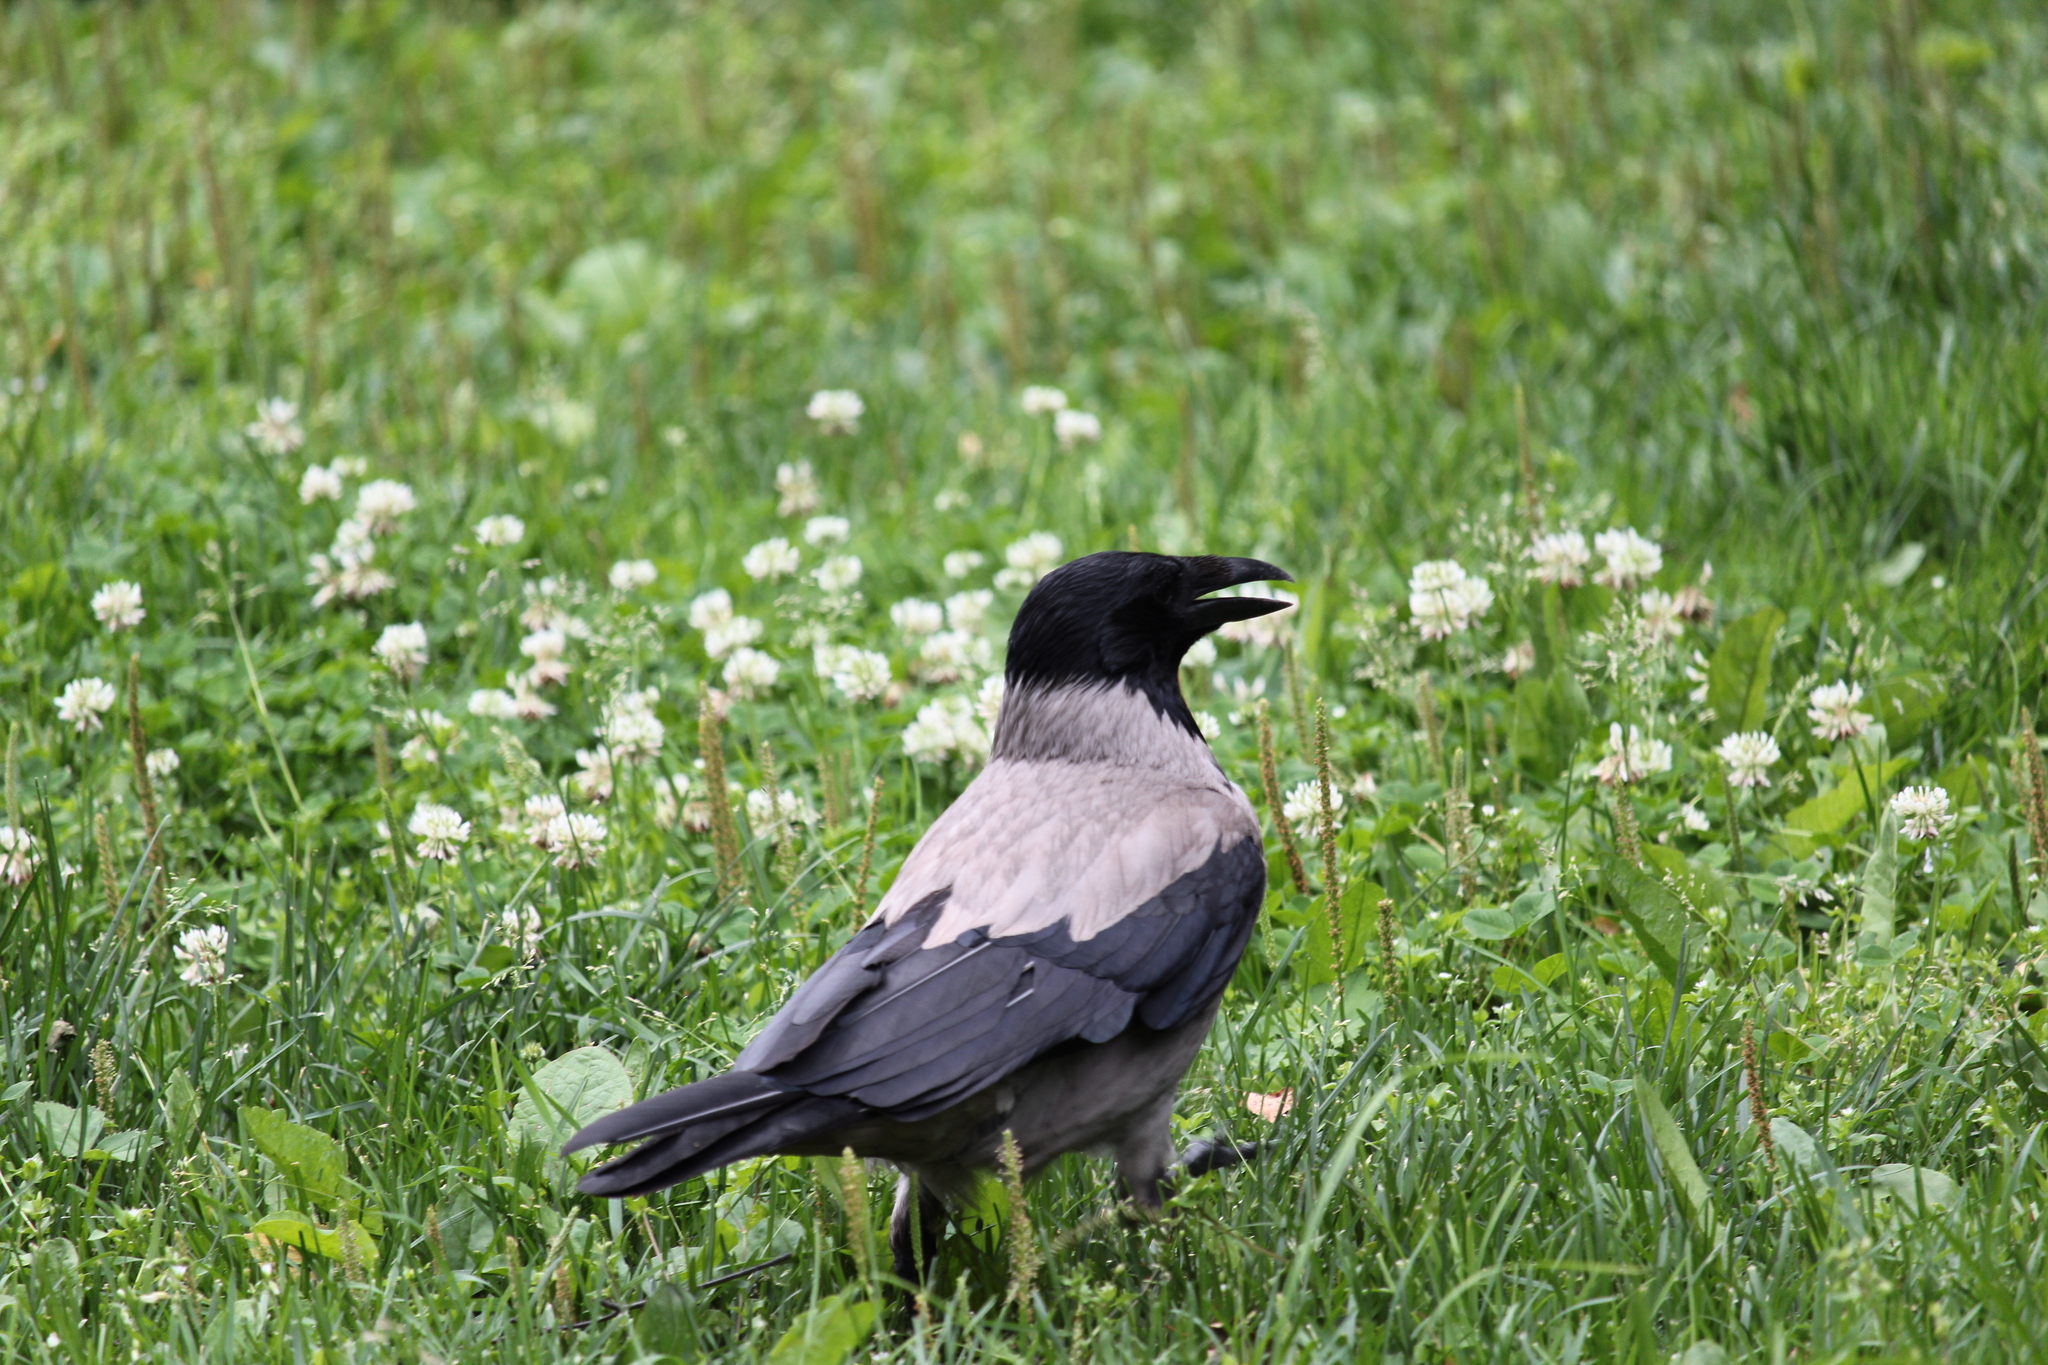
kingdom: Animalia
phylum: Chordata
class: Aves
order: Passeriformes
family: Corvidae
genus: Corvus
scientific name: Corvus cornix
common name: Hooded crow
